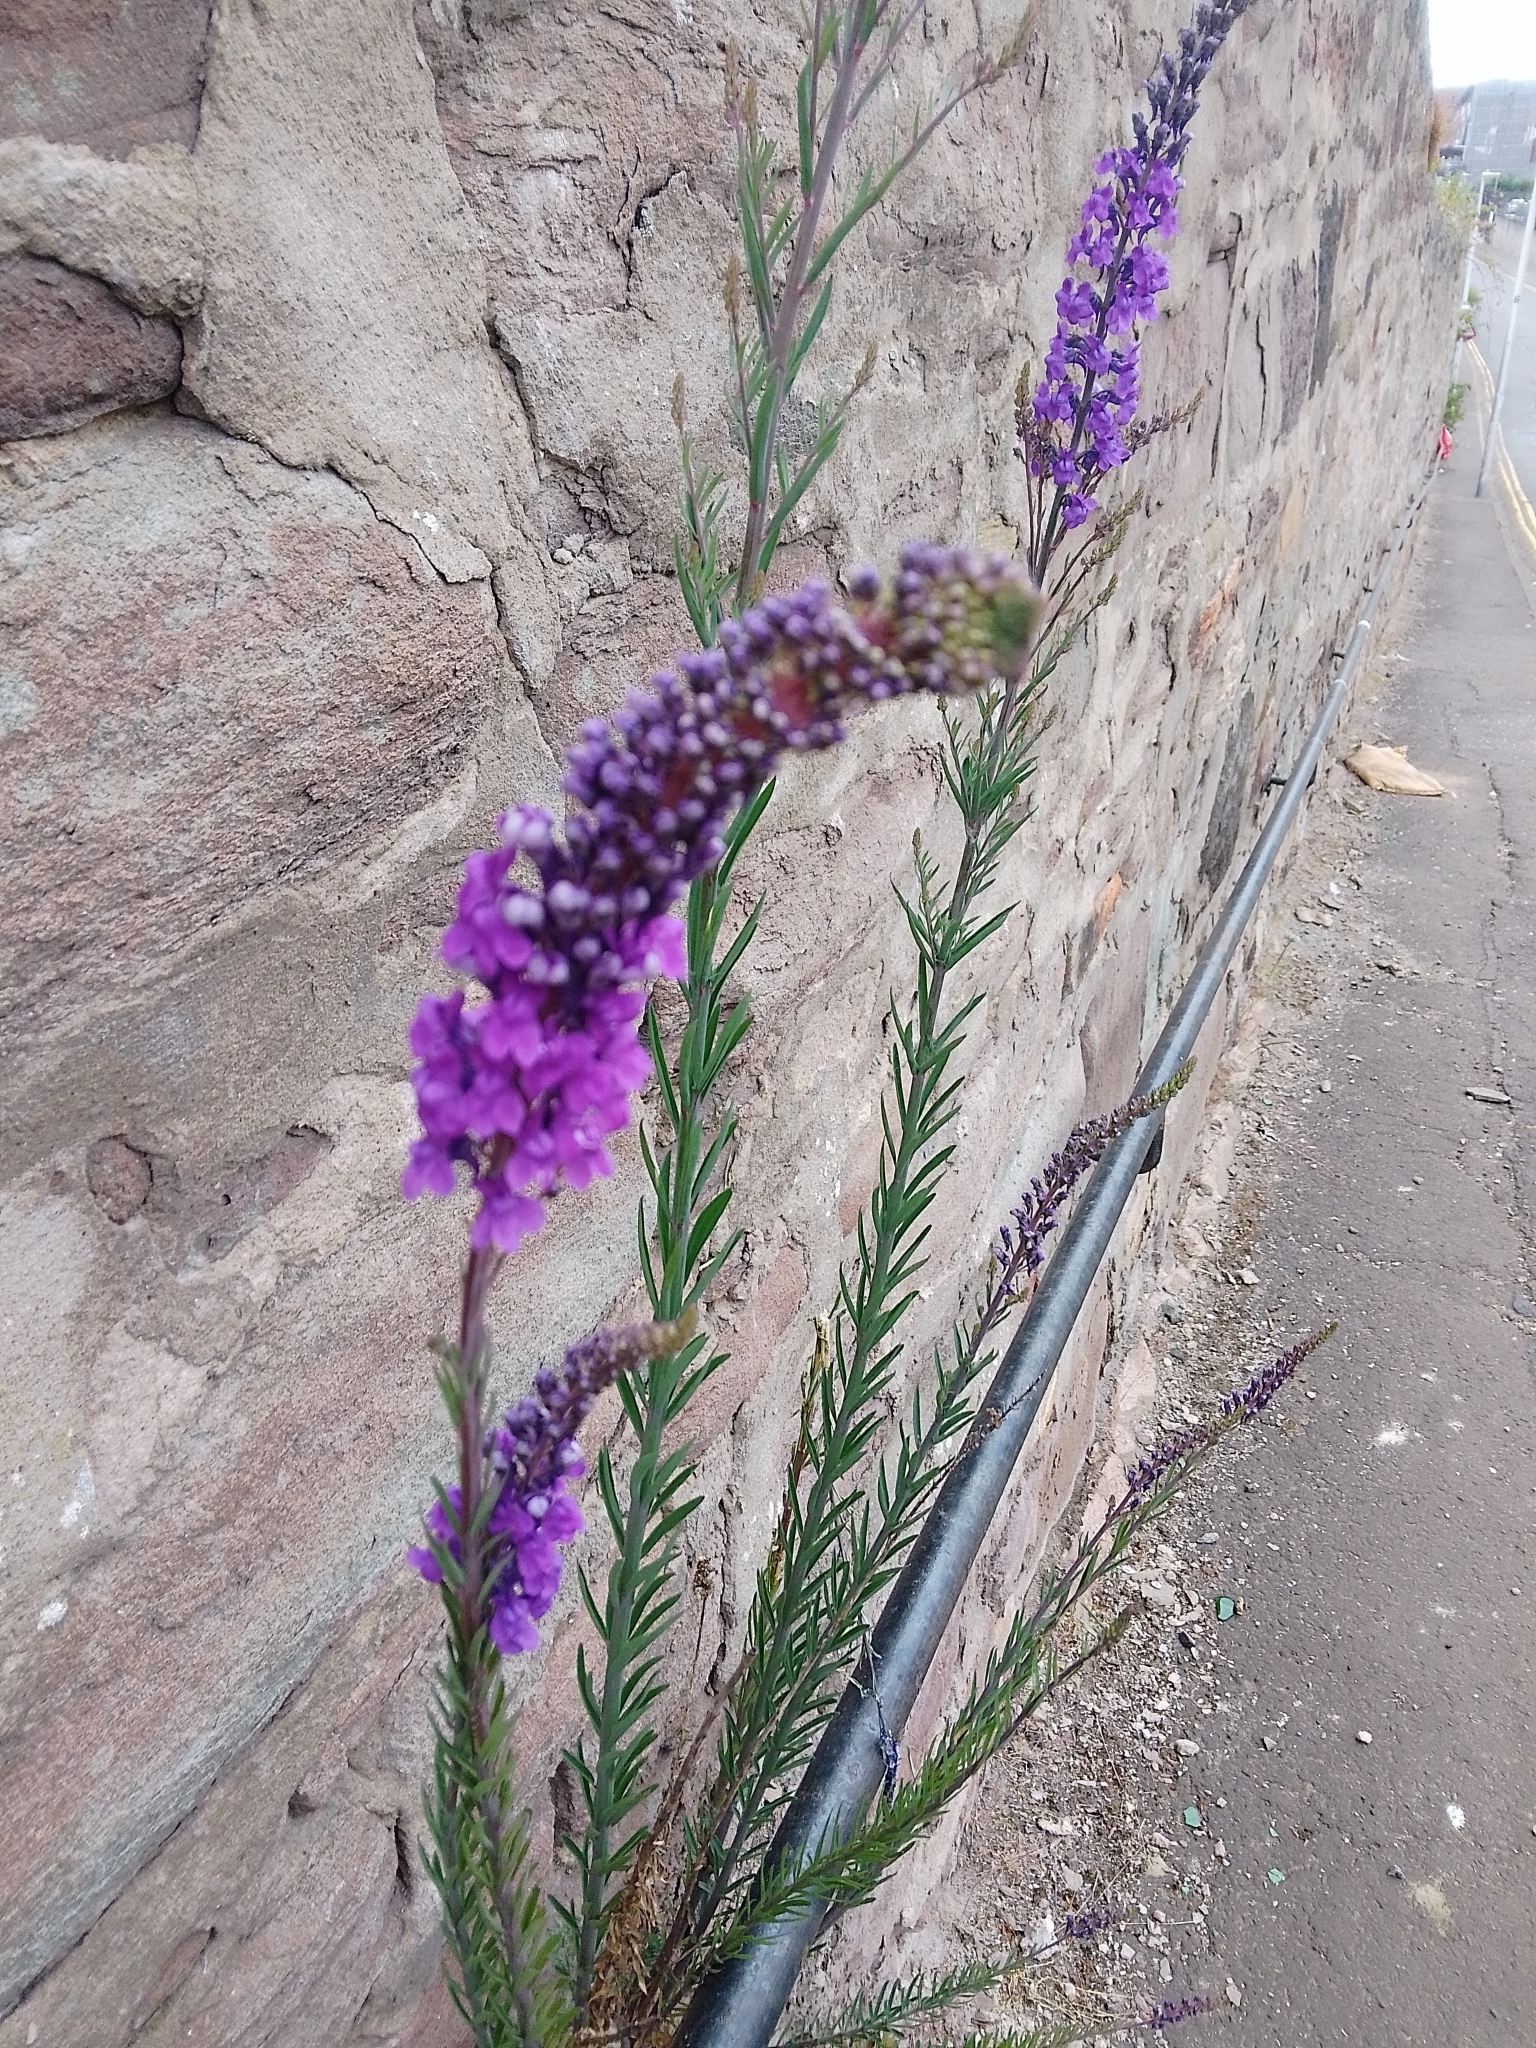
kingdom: Plantae
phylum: Tracheophyta
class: Magnoliopsida
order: Lamiales
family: Plantaginaceae
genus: Linaria
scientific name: Linaria purpurea
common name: Purple toadflax
